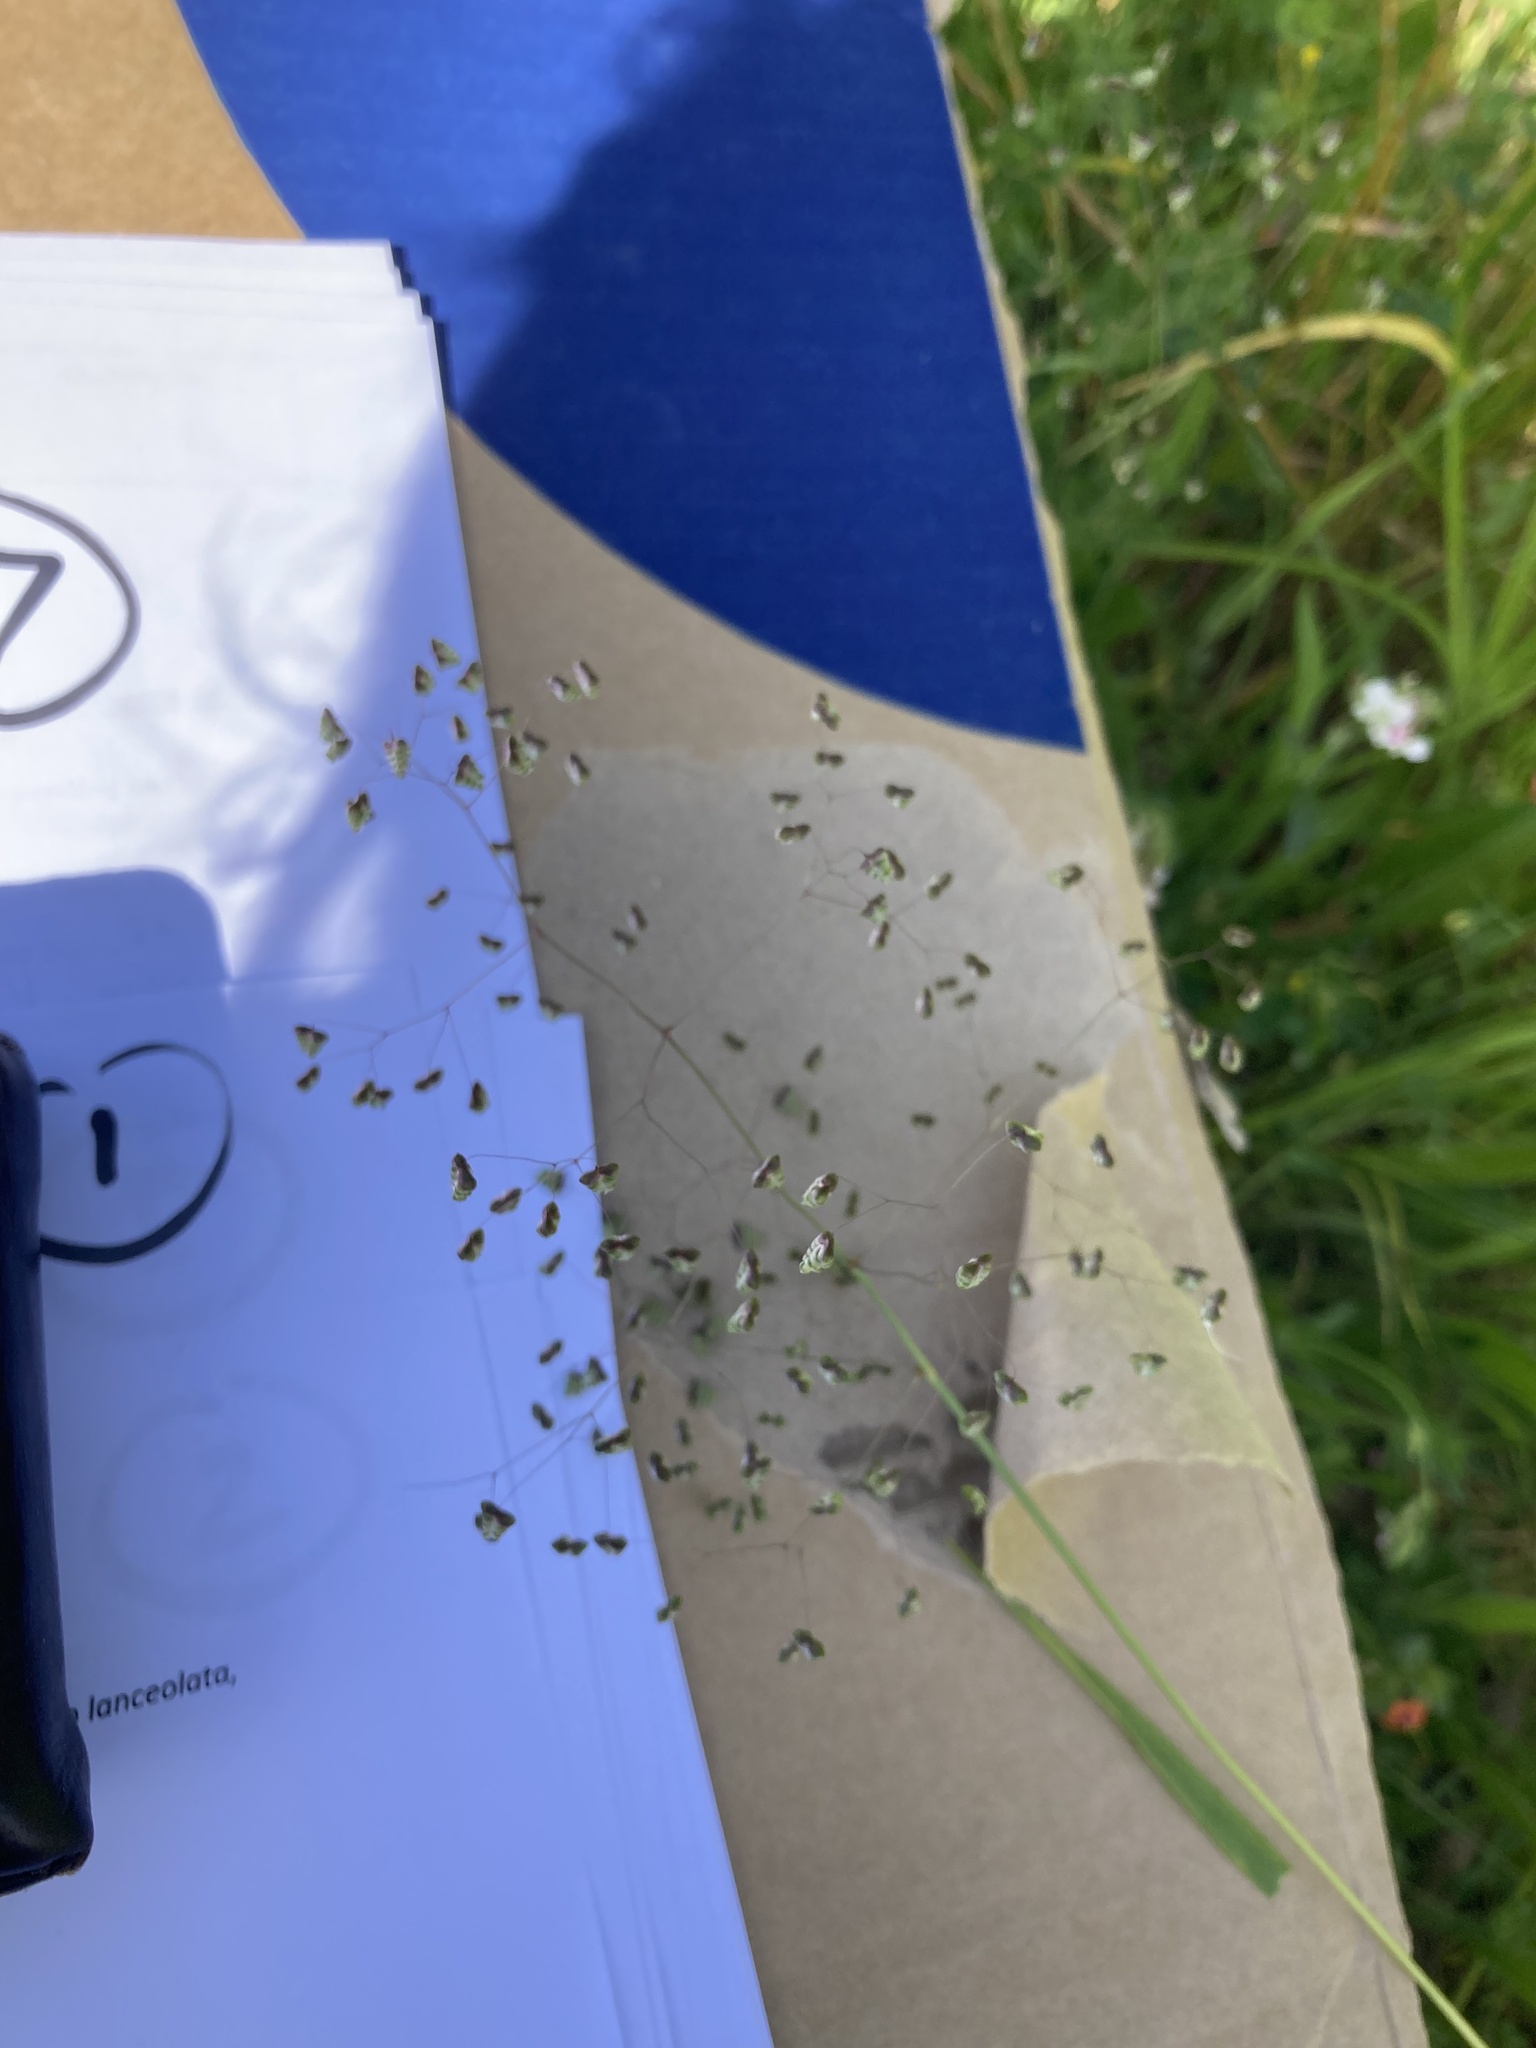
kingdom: Plantae
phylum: Tracheophyta
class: Liliopsida
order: Poales
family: Poaceae
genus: Briza
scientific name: Briza minor
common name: Lesser quaking-grass
